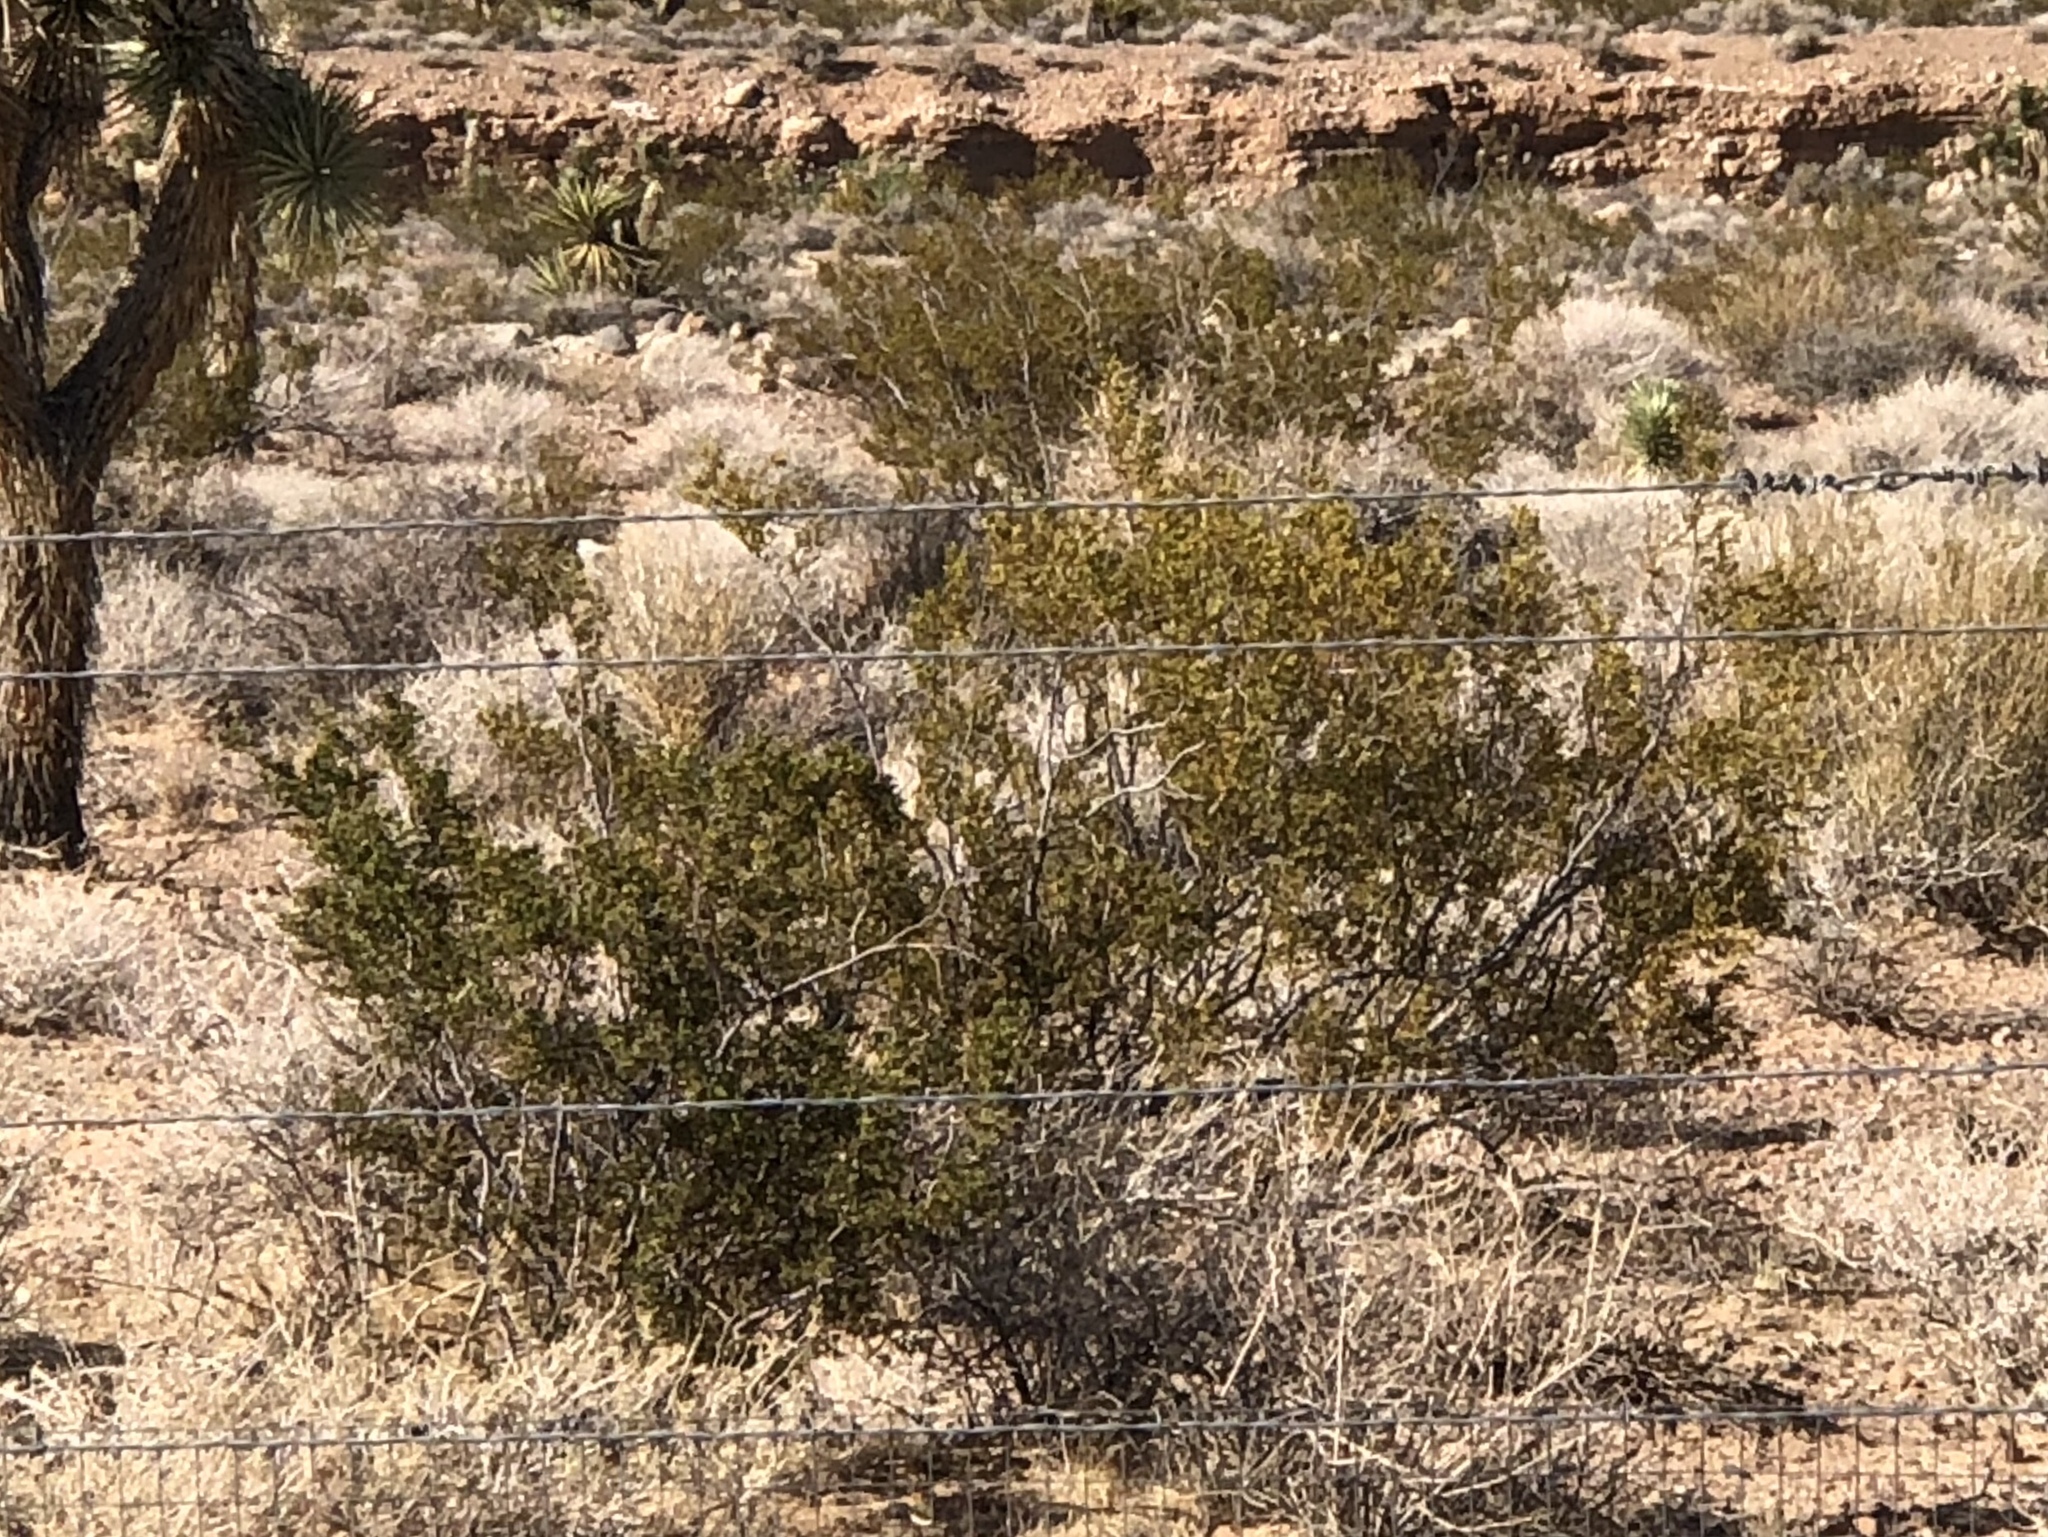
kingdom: Plantae
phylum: Tracheophyta
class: Magnoliopsida
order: Zygophyllales
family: Zygophyllaceae
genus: Larrea
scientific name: Larrea tridentata
